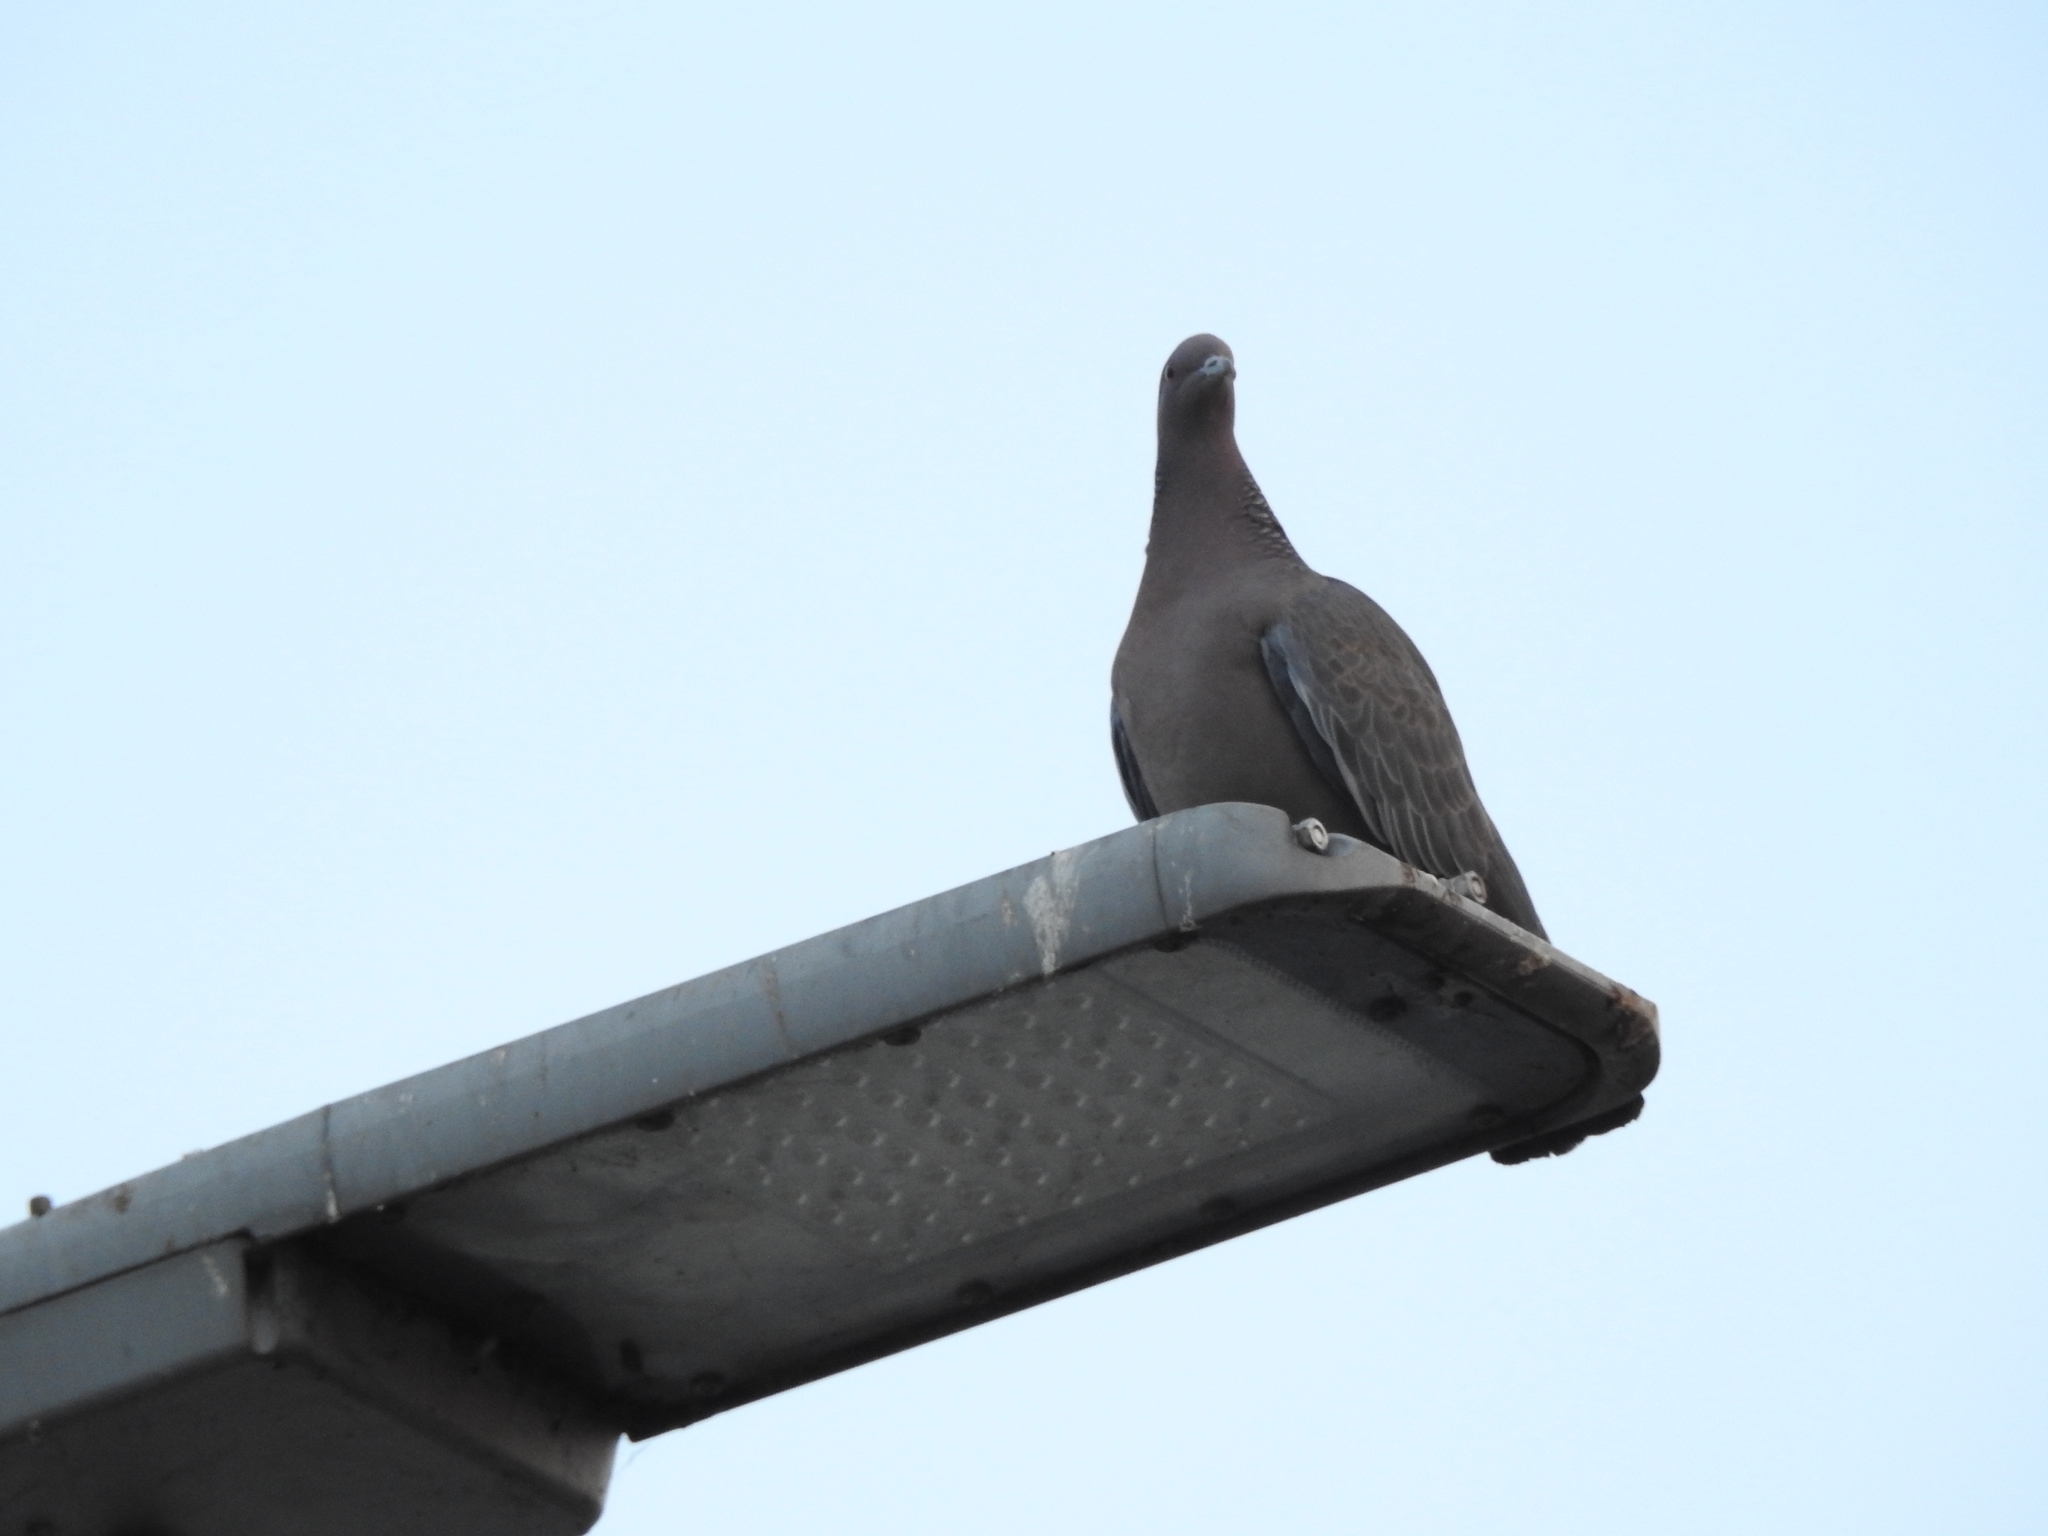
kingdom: Animalia
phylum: Chordata
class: Aves
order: Columbiformes
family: Columbidae
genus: Patagioenas
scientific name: Patagioenas picazuro
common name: Picazuro pigeon
